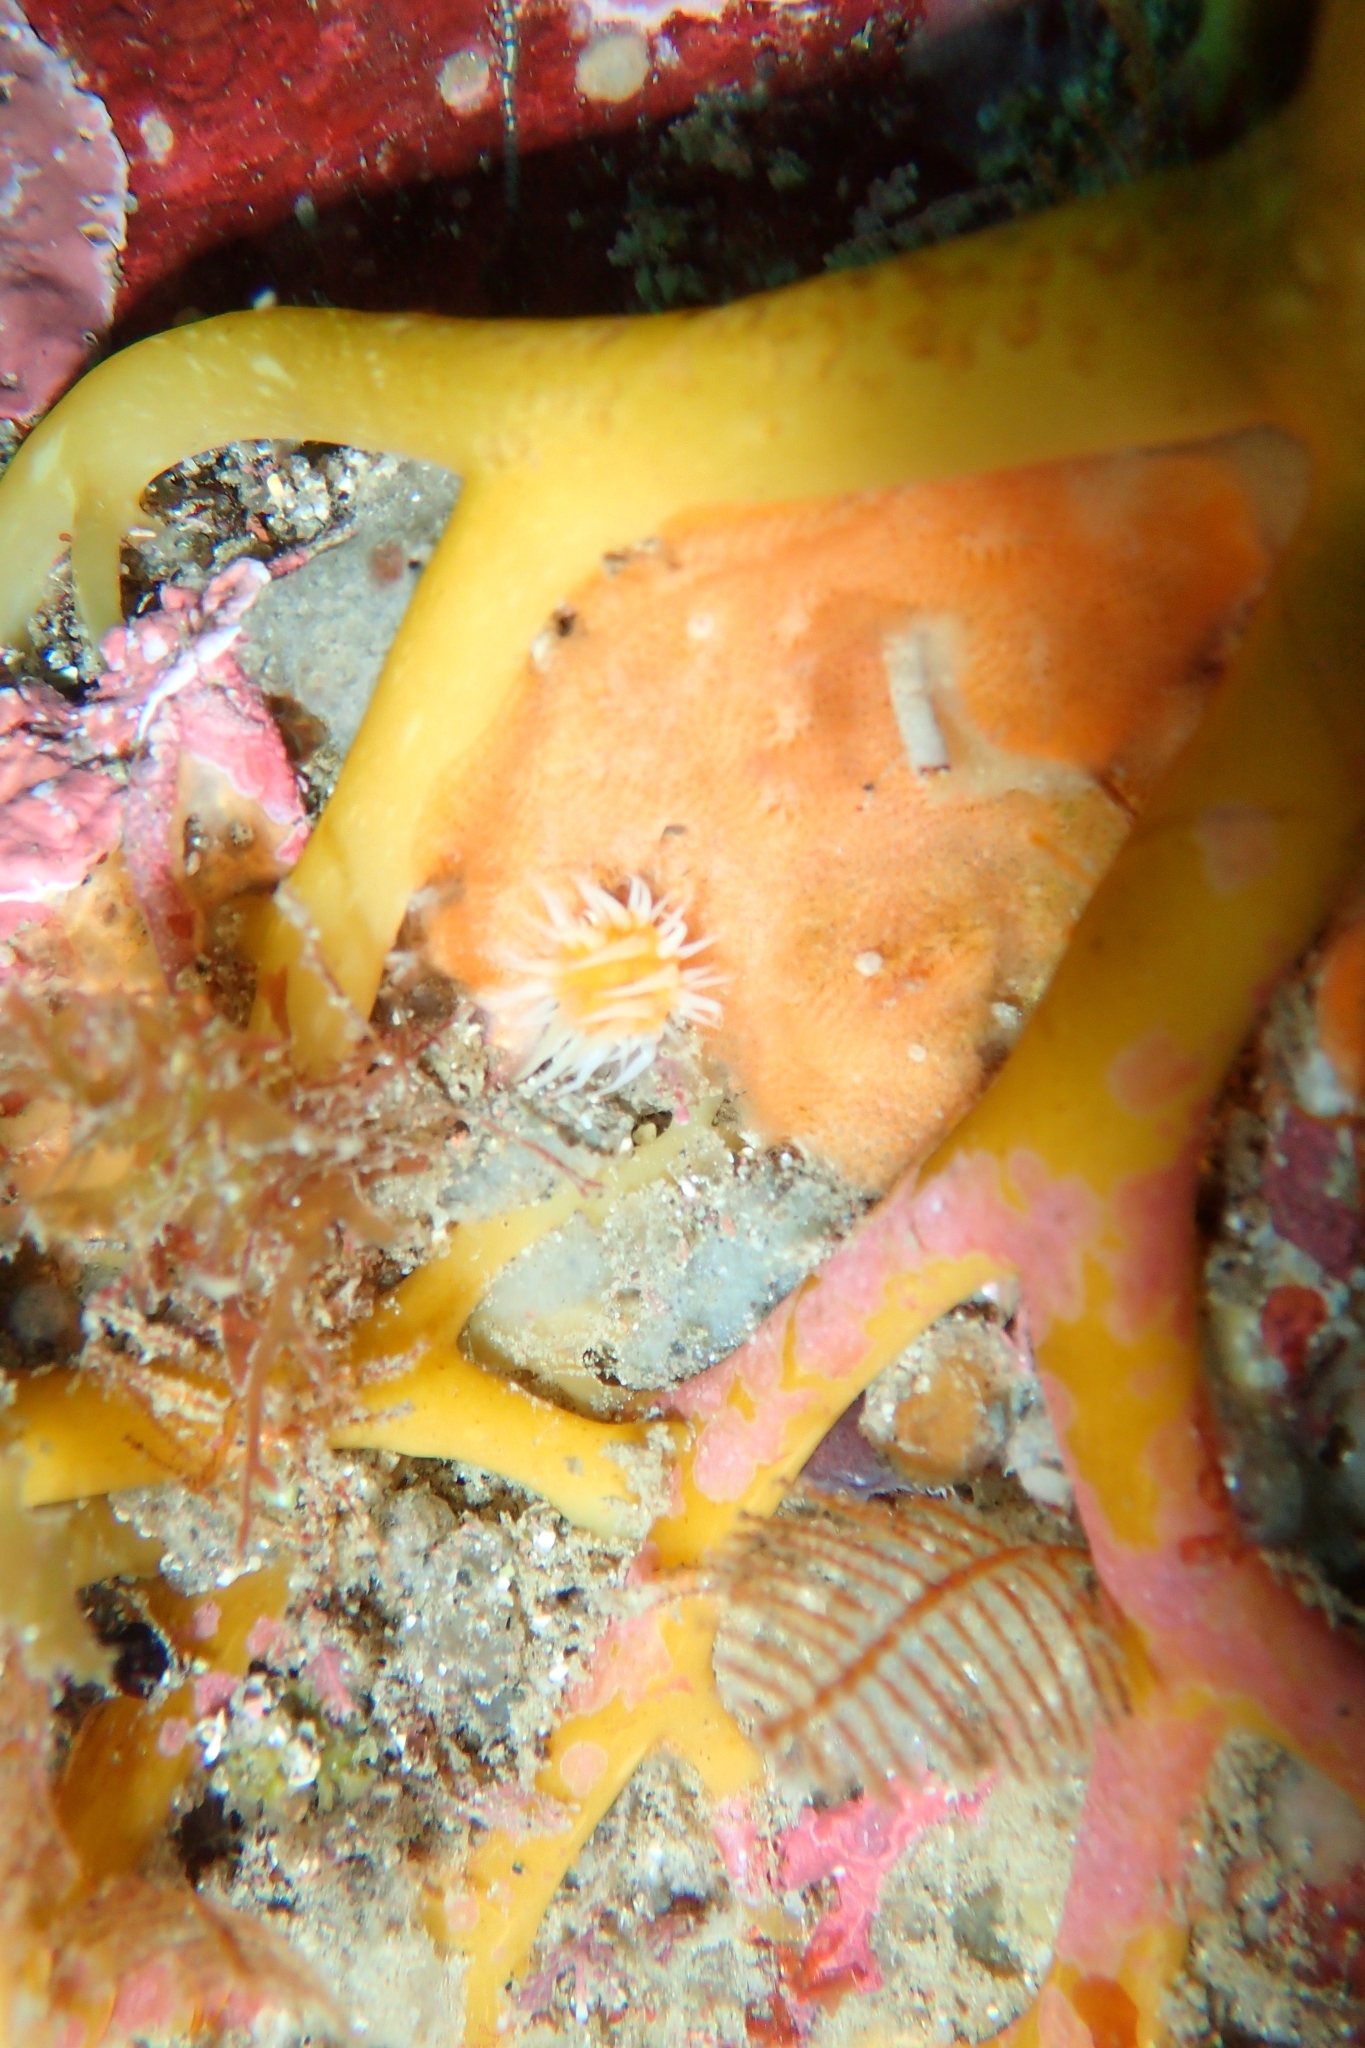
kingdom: Animalia
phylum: Cnidaria
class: Anthozoa
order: Actiniaria
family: Sagartiidae
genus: Anthothoe
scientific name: Anthothoe albocincta
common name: Orange striped anemone
